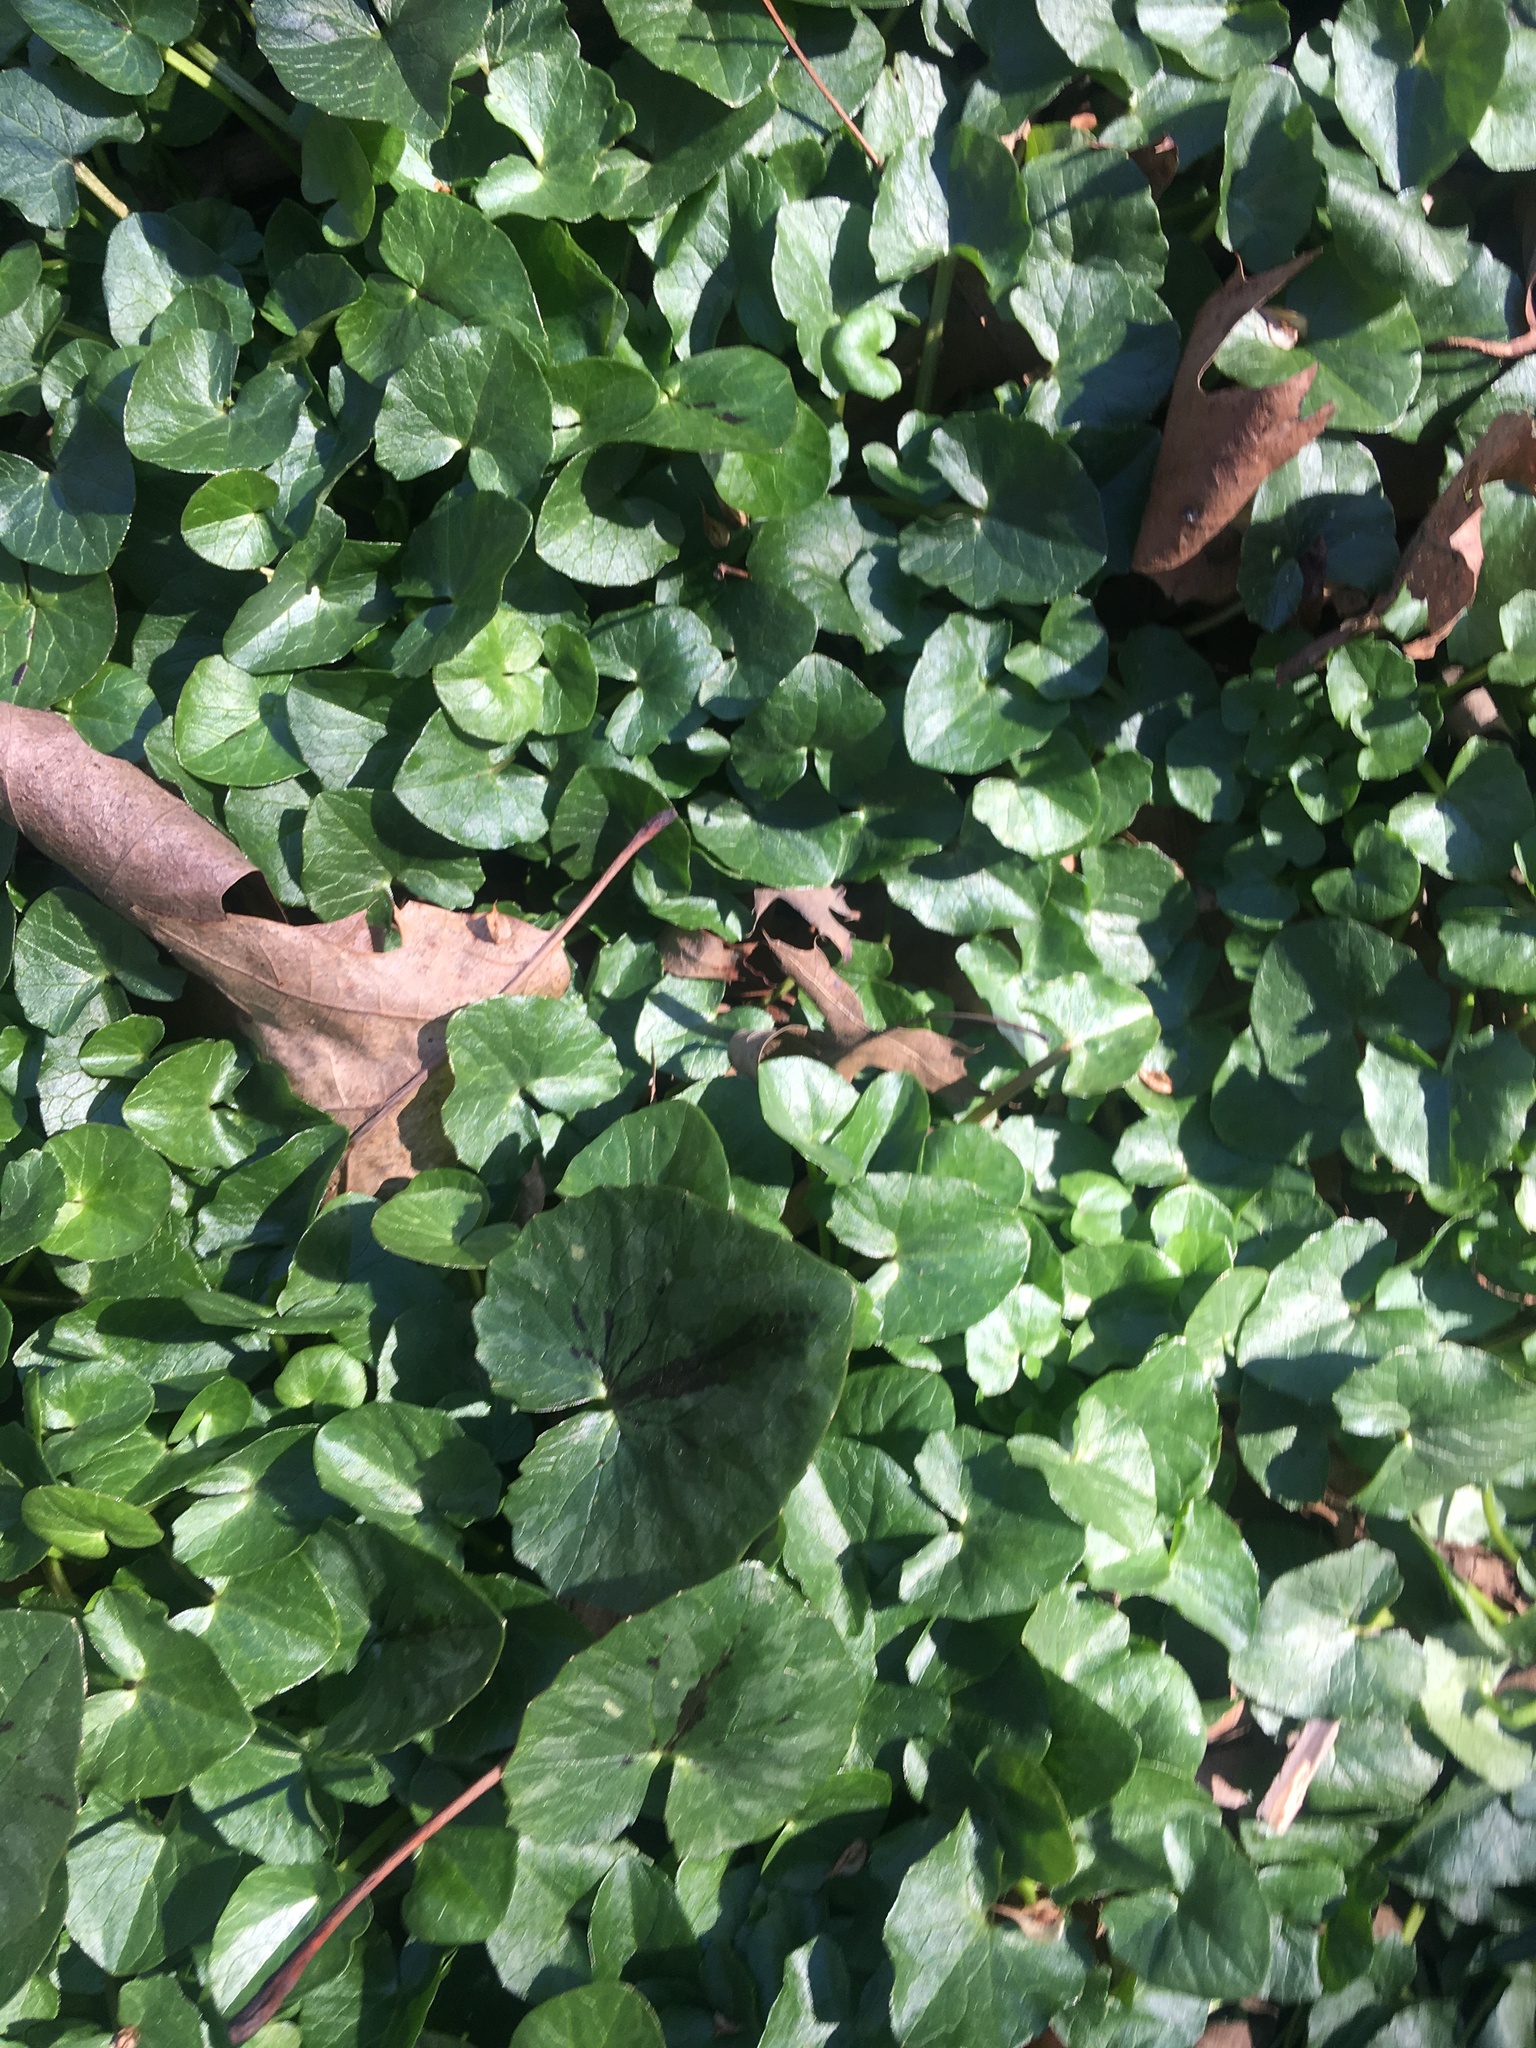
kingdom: Plantae
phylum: Tracheophyta
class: Magnoliopsida
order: Ranunculales
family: Ranunculaceae
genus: Ficaria
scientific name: Ficaria verna
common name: Lesser celandine
